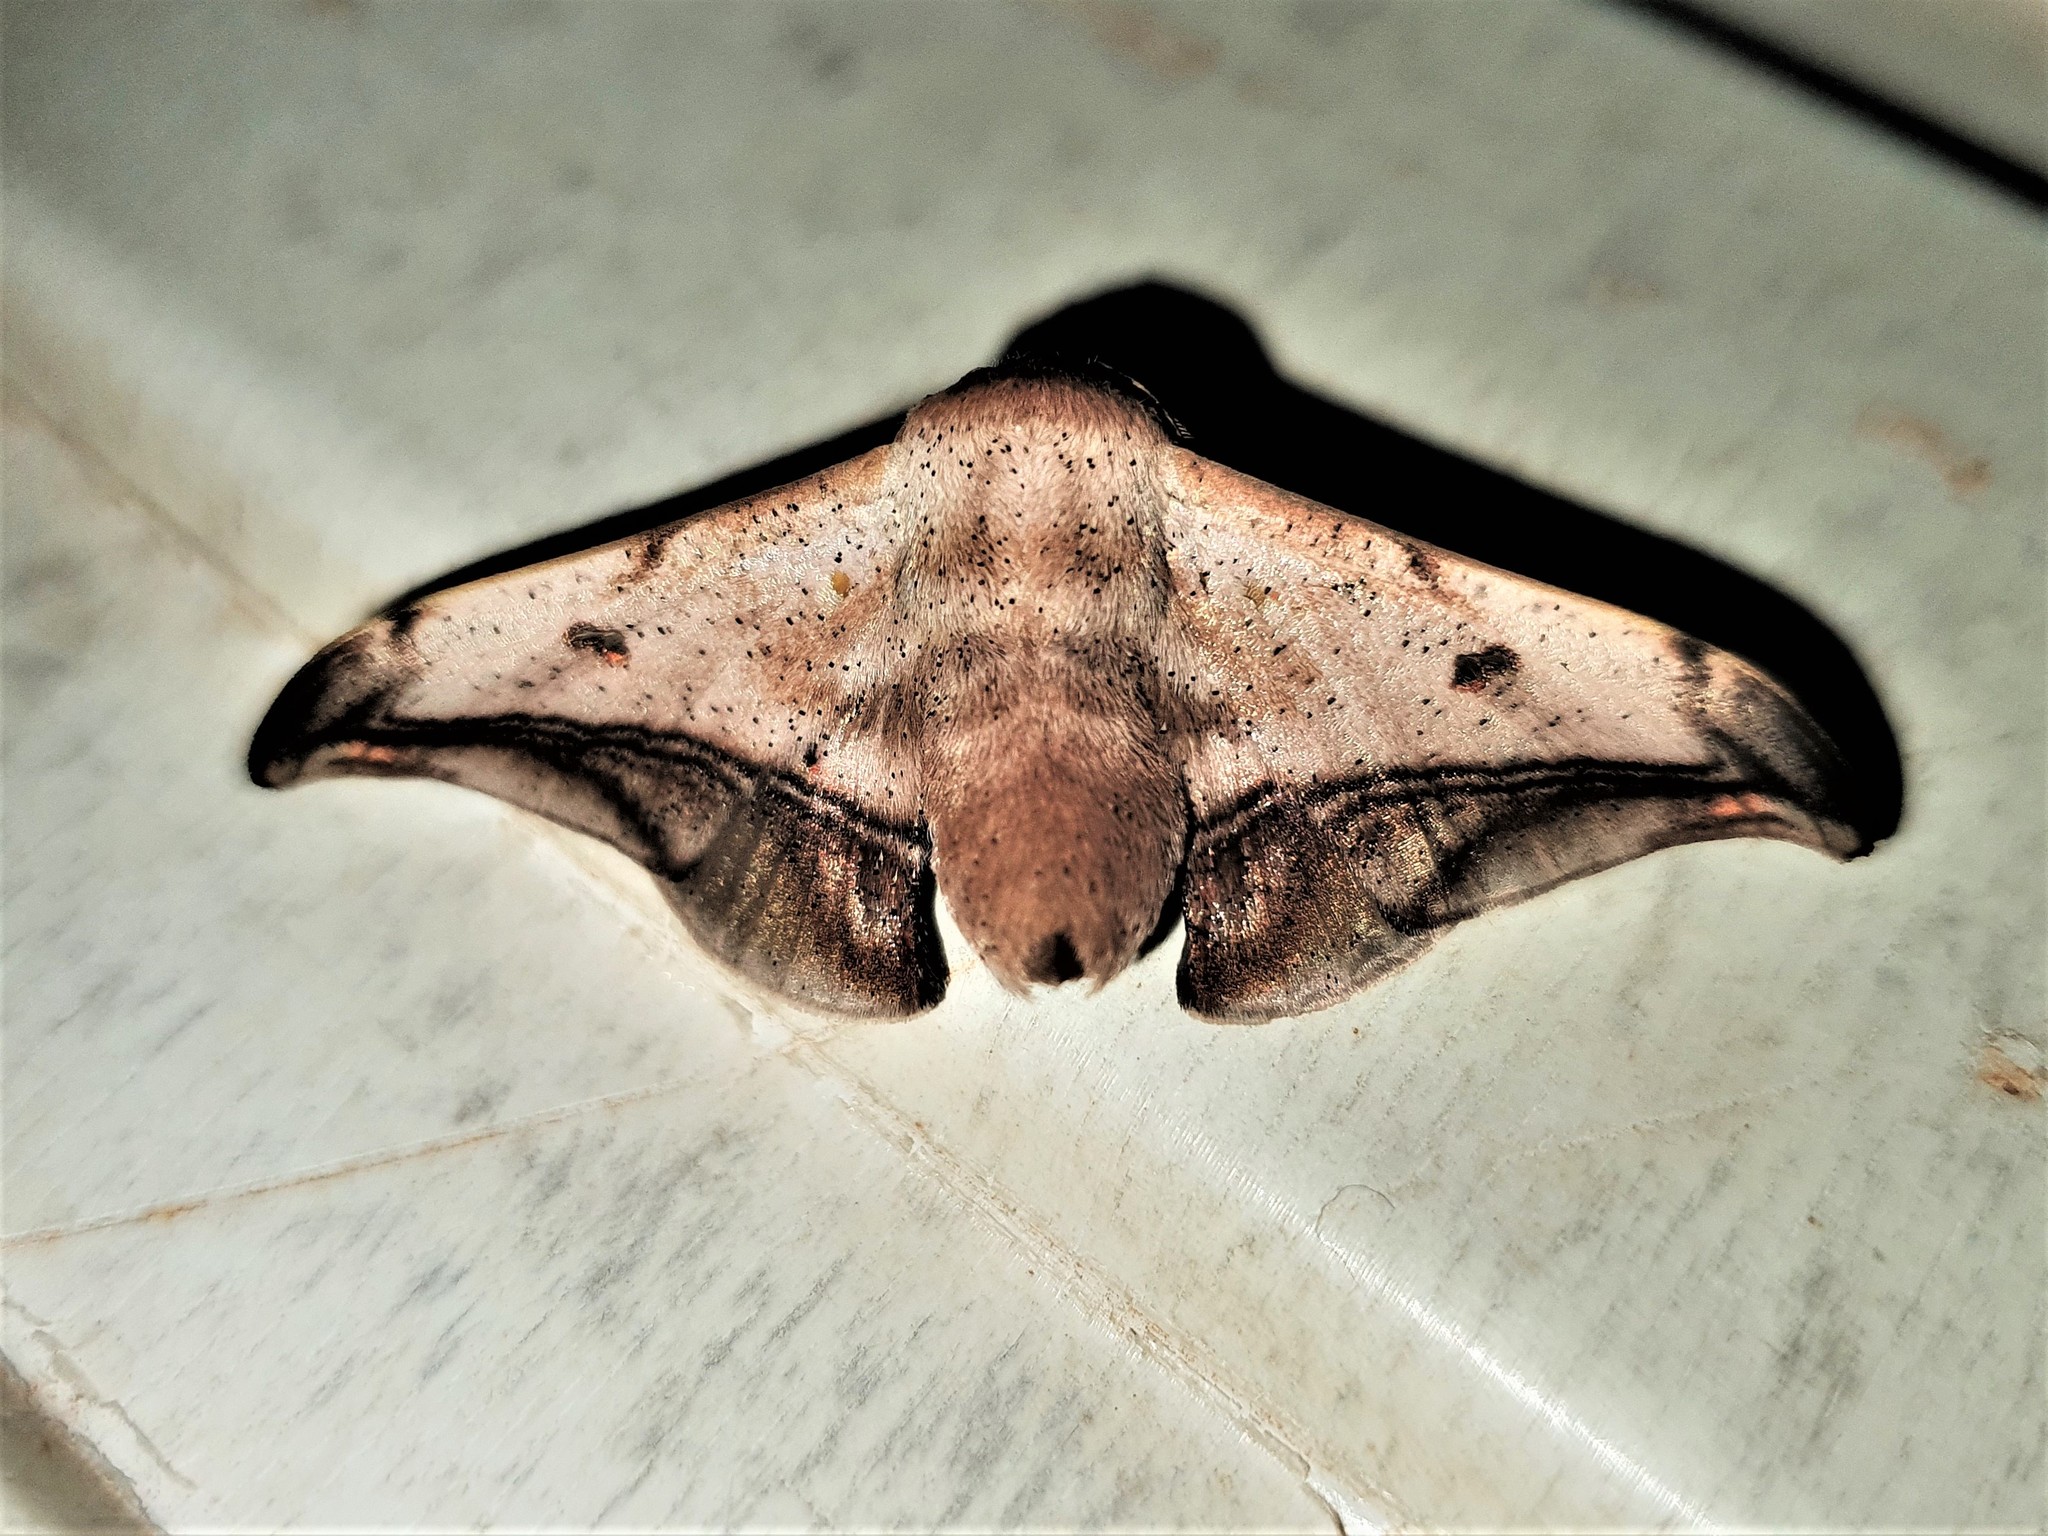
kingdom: Animalia
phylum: Arthropoda
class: Insecta
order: Lepidoptera
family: Mimallonidae
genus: Cicinnus
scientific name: Cicinnus fogia
